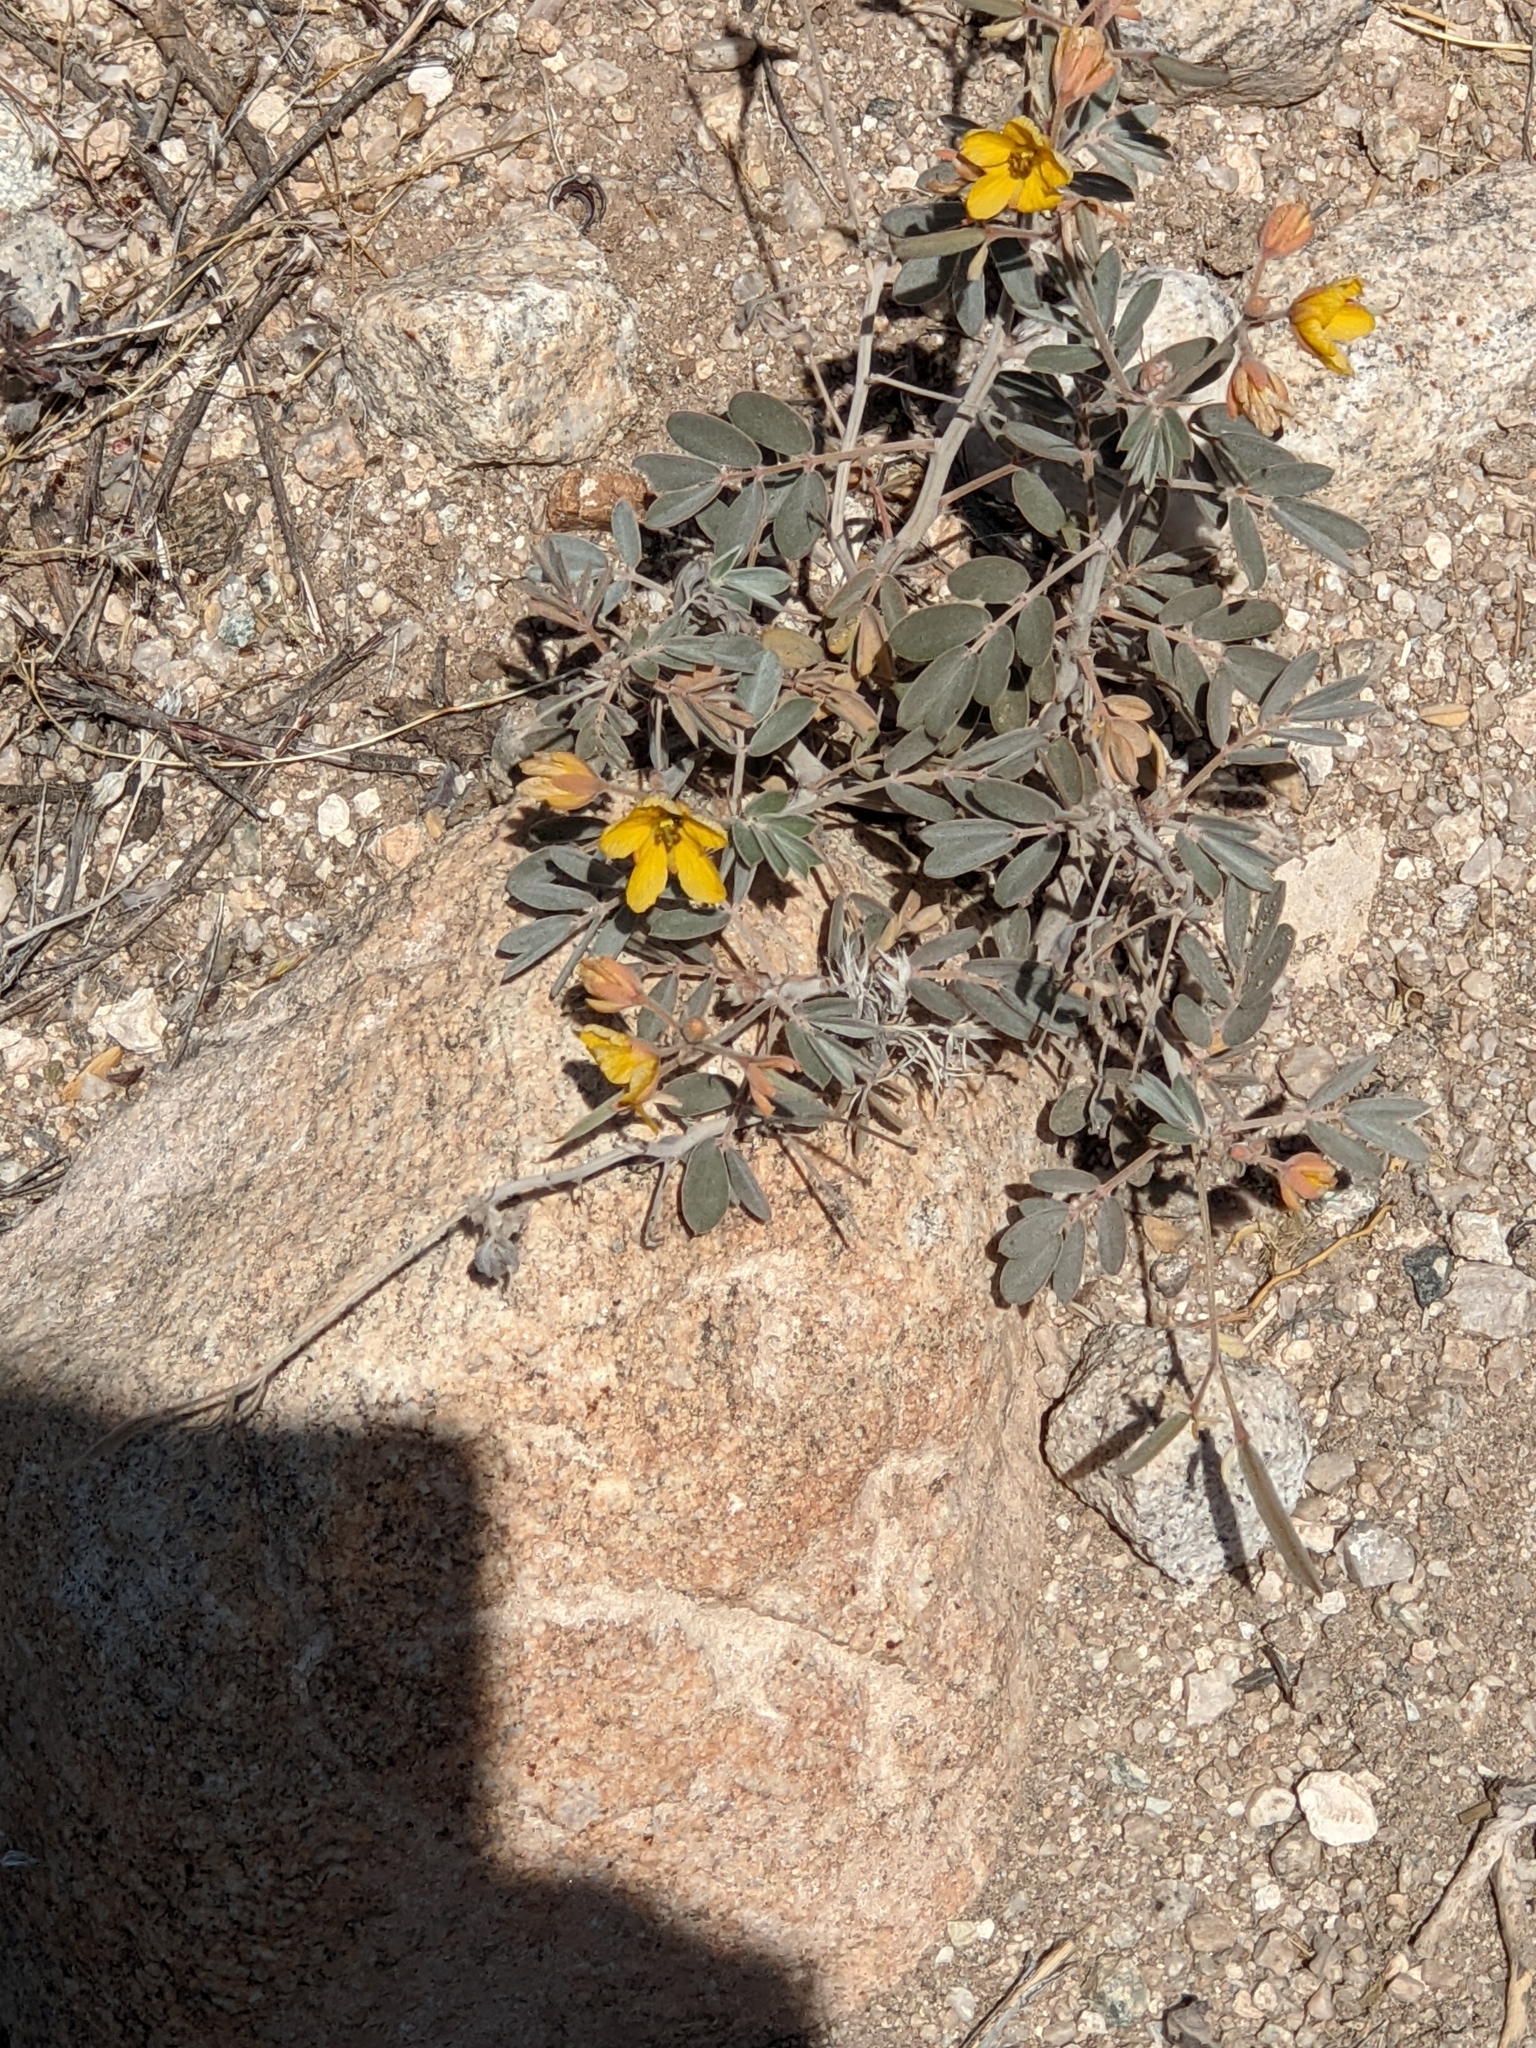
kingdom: Plantae
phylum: Tracheophyta
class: Magnoliopsida
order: Fabales
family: Fabaceae
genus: Senna
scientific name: Senna covesii
